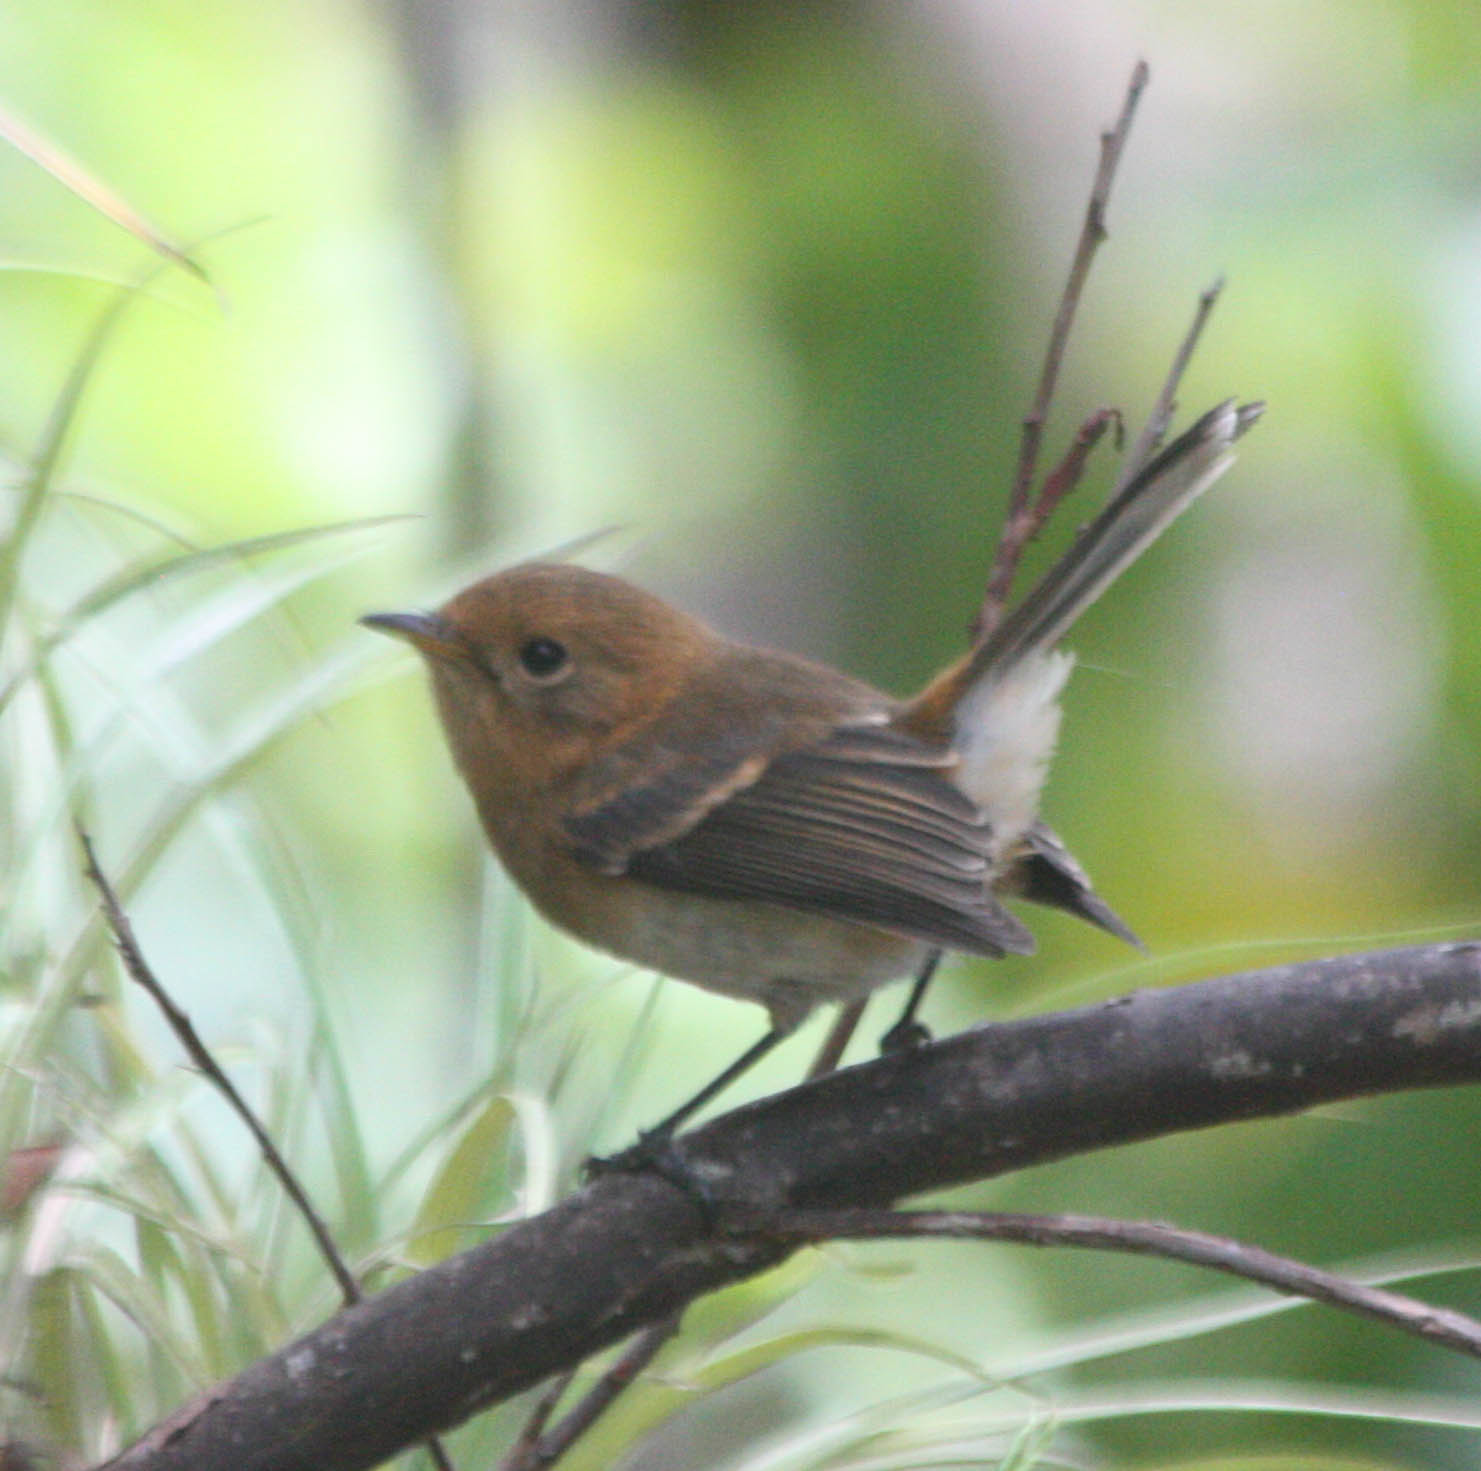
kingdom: Animalia
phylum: Chordata
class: Aves
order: Passeriformes
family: Monarchidae
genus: Chasiempis
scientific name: Chasiempis sclateri
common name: Kauai elepaio
